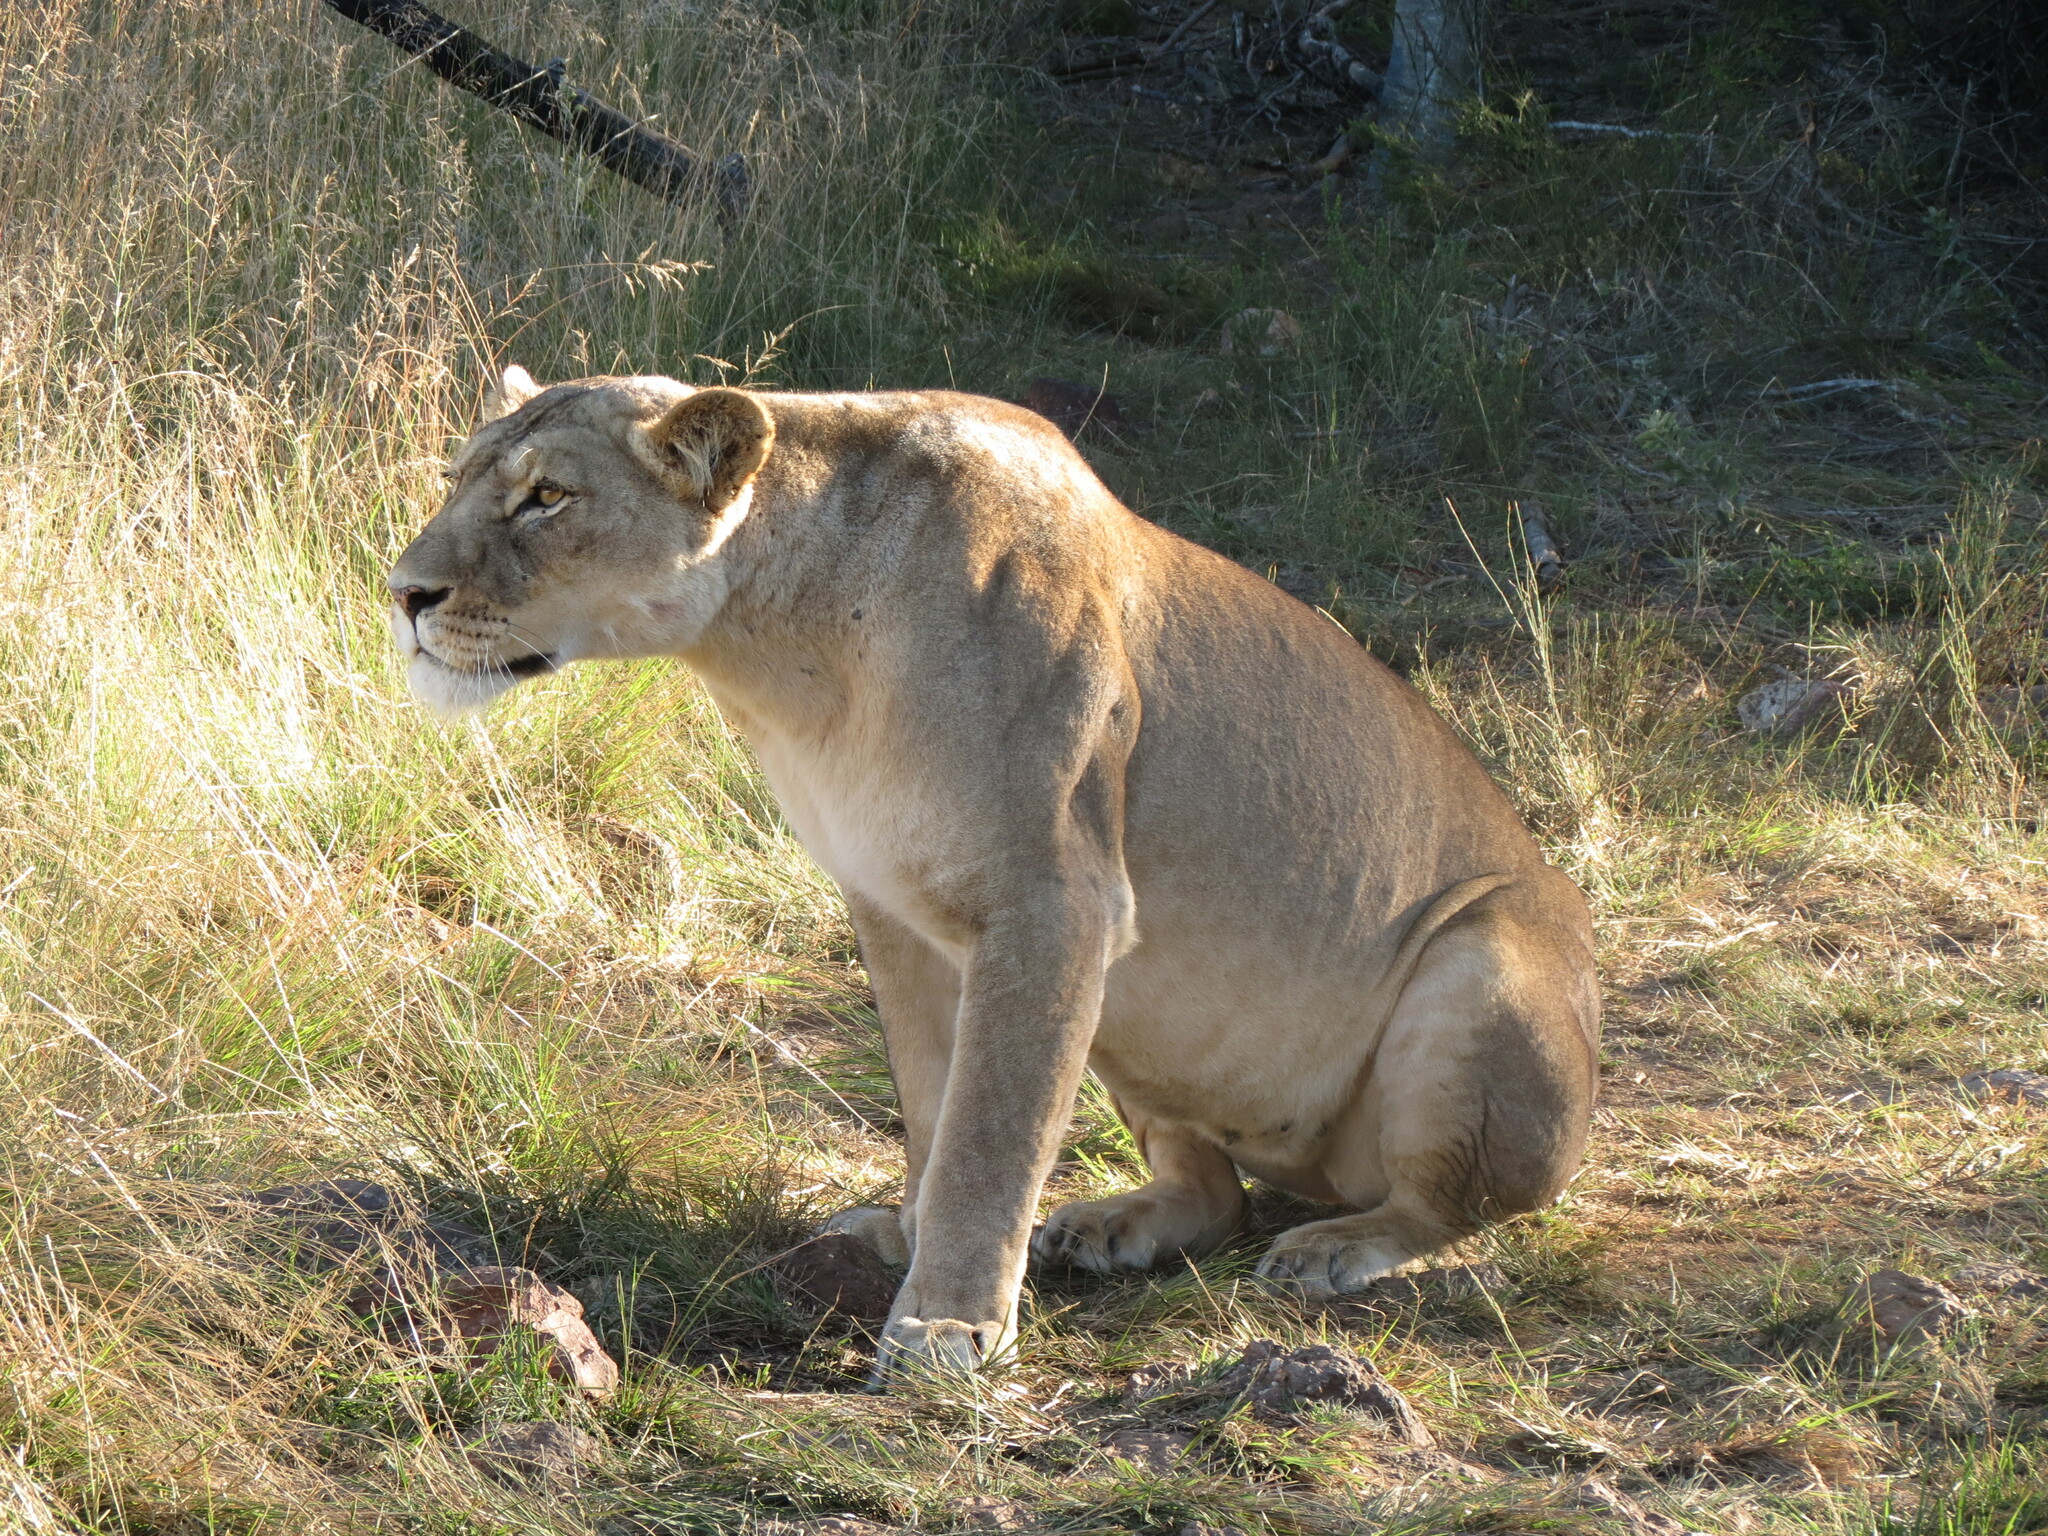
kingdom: Animalia
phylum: Chordata
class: Mammalia
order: Carnivora
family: Felidae
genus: Panthera
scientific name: Panthera leo
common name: Lion
